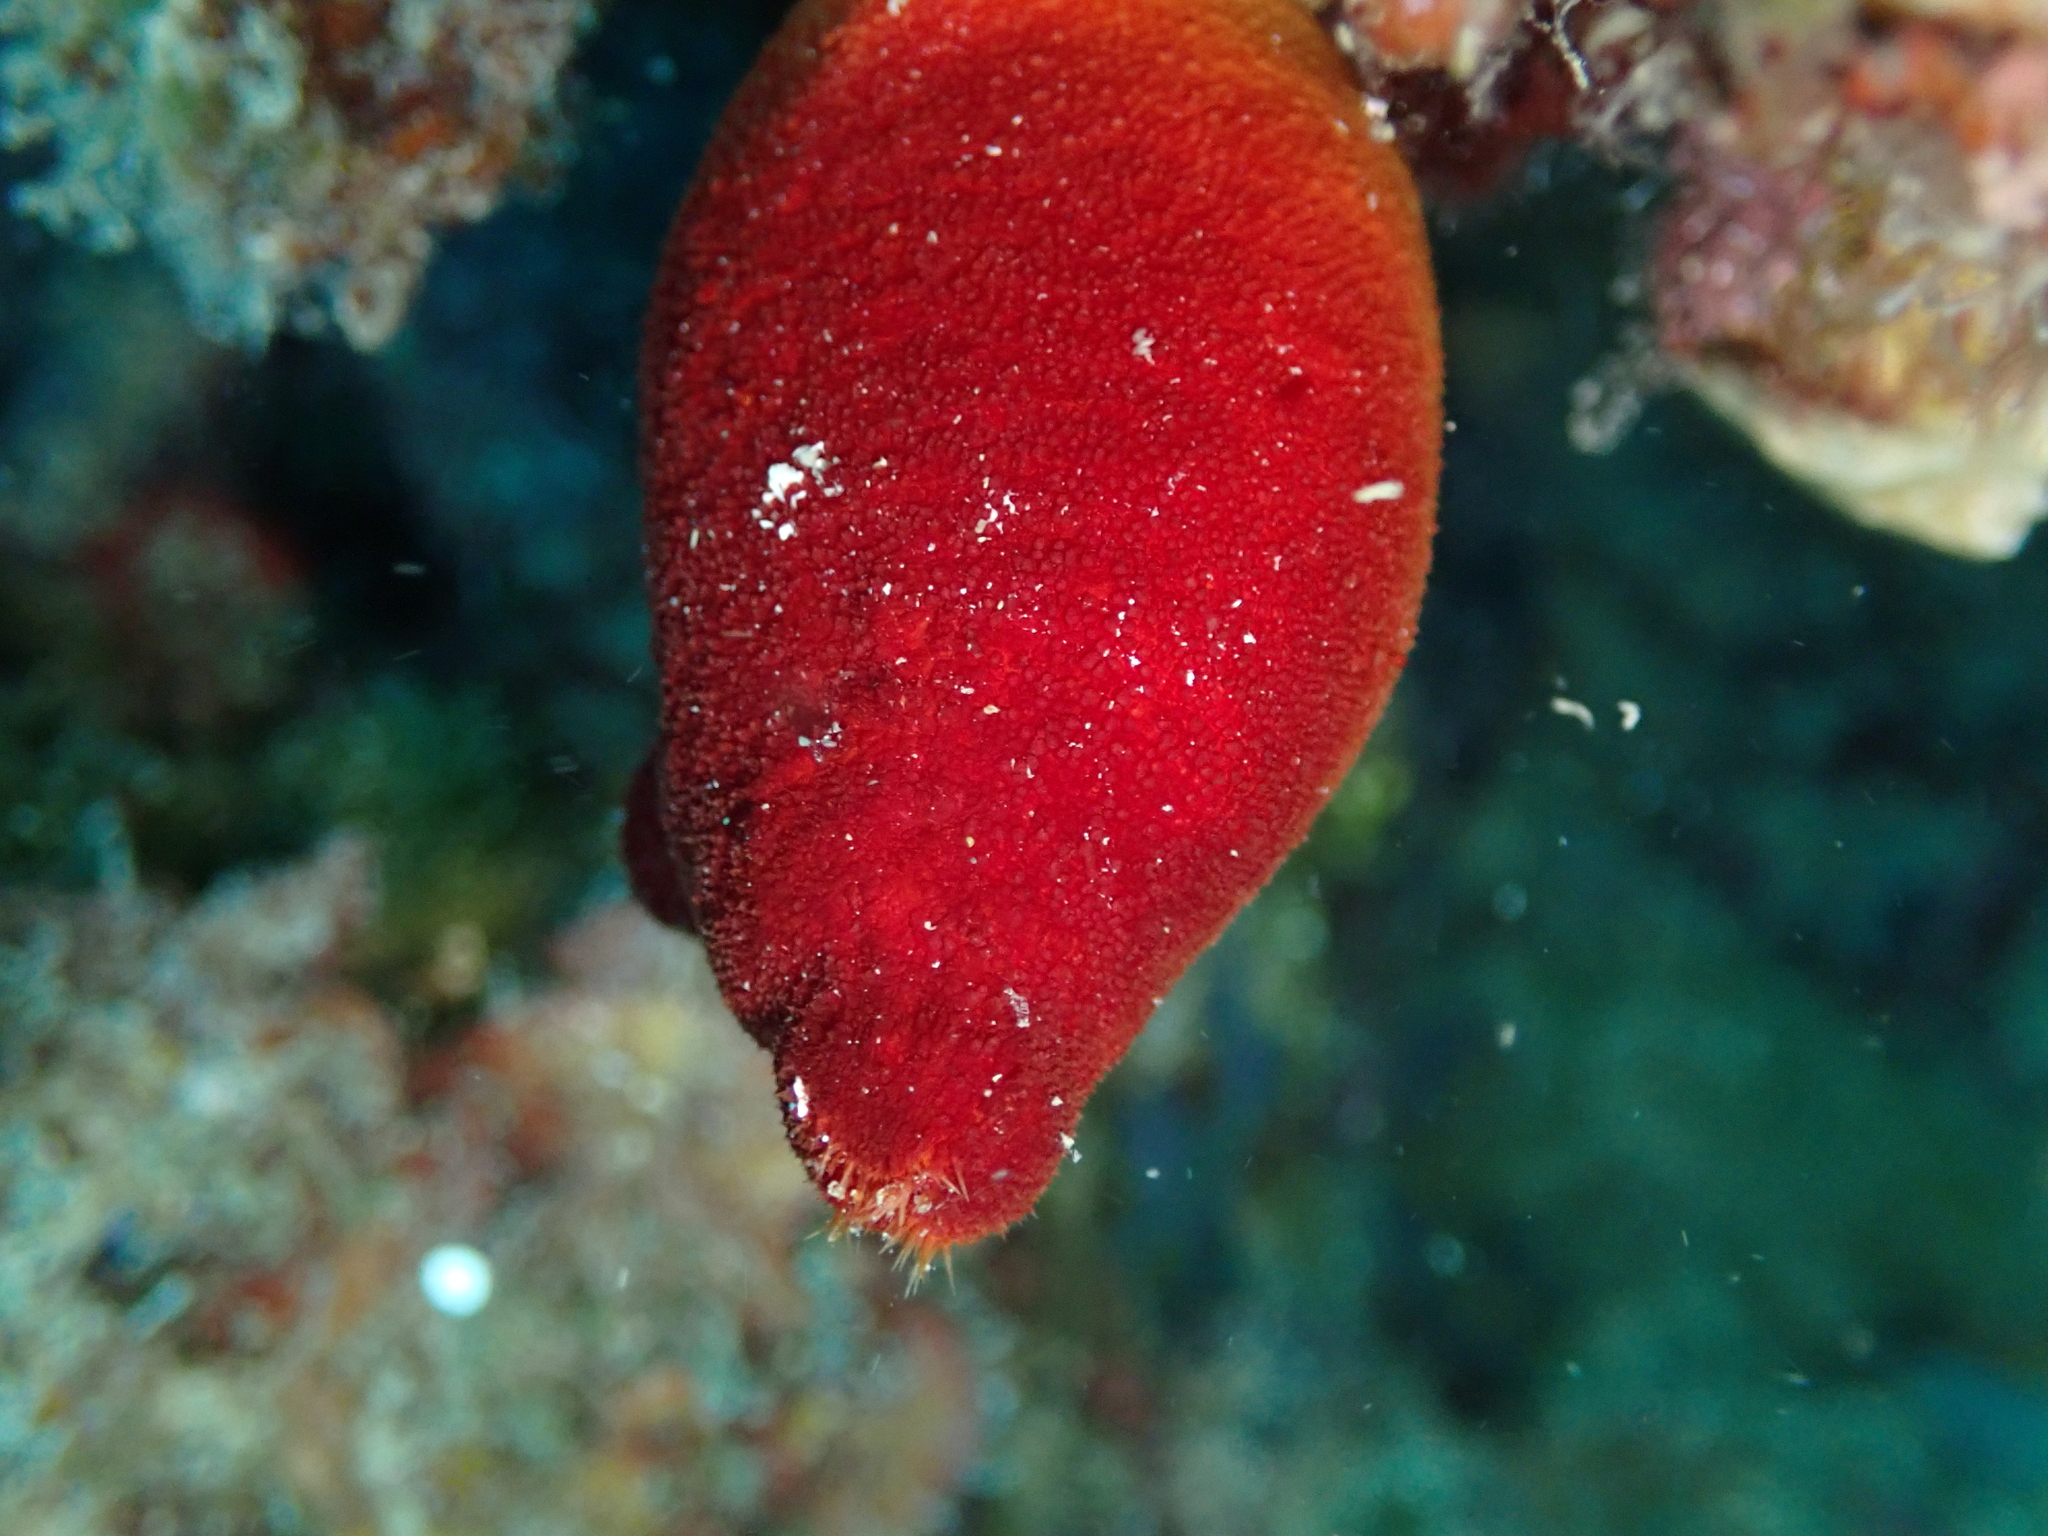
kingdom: Animalia
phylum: Chordata
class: Ascidiacea
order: Stolidobranchia
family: Pyuridae
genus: Halocynthia
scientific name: Halocynthia papillosa
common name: Red sea-squirt
